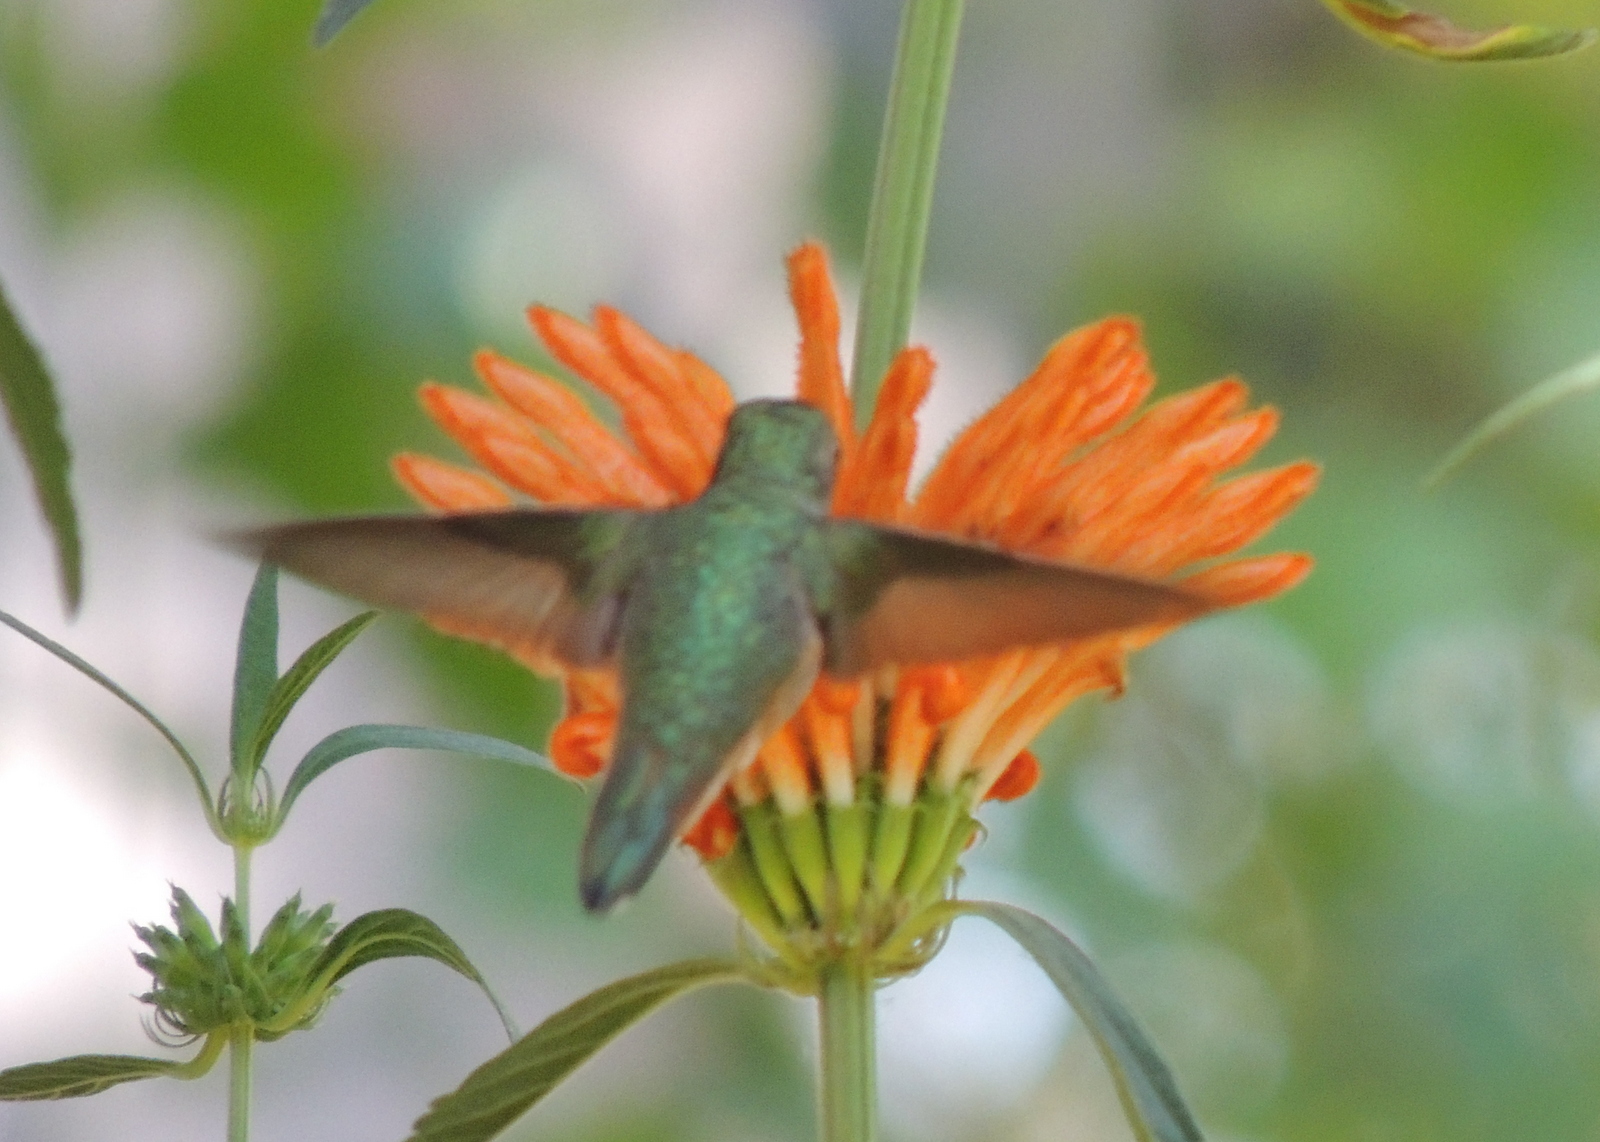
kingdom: Animalia
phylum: Chordata
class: Aves
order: Apodiformes
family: Trochilidae
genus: Selasphorus
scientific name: Selasphorus sasin
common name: Allen's hummingbird
